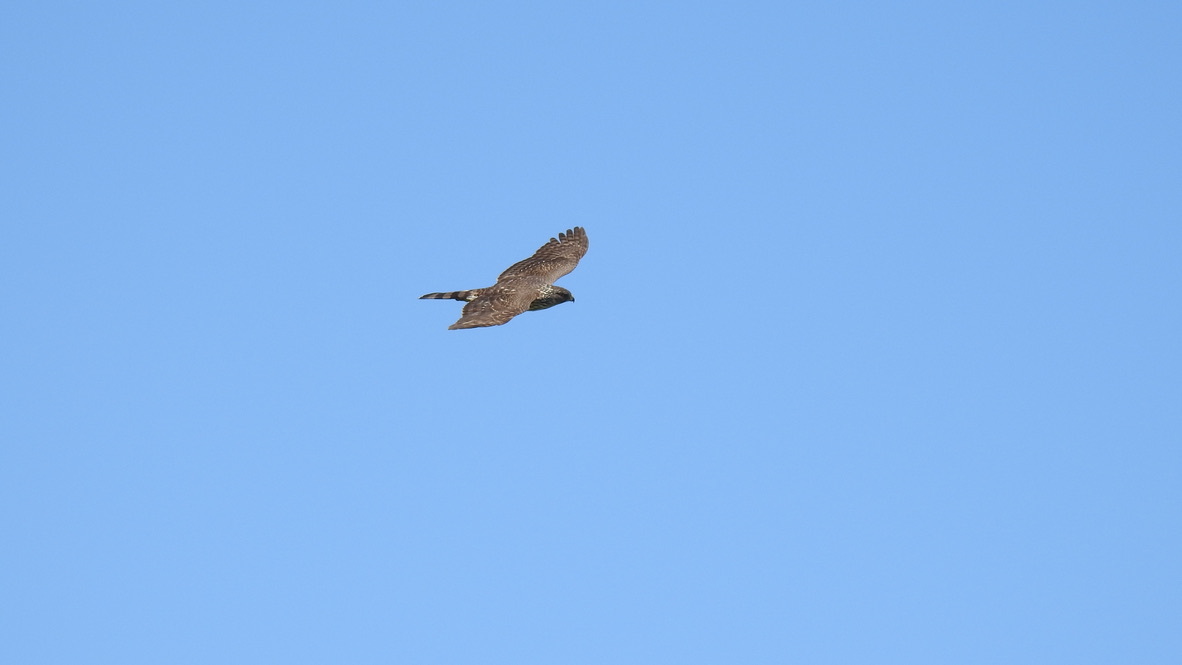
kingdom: Animalia
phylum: Chordata
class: Aves
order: Accipitriformes
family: Accipitridae
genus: Accipiter
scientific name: Accipiter cooperii
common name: Cooper's hawk
